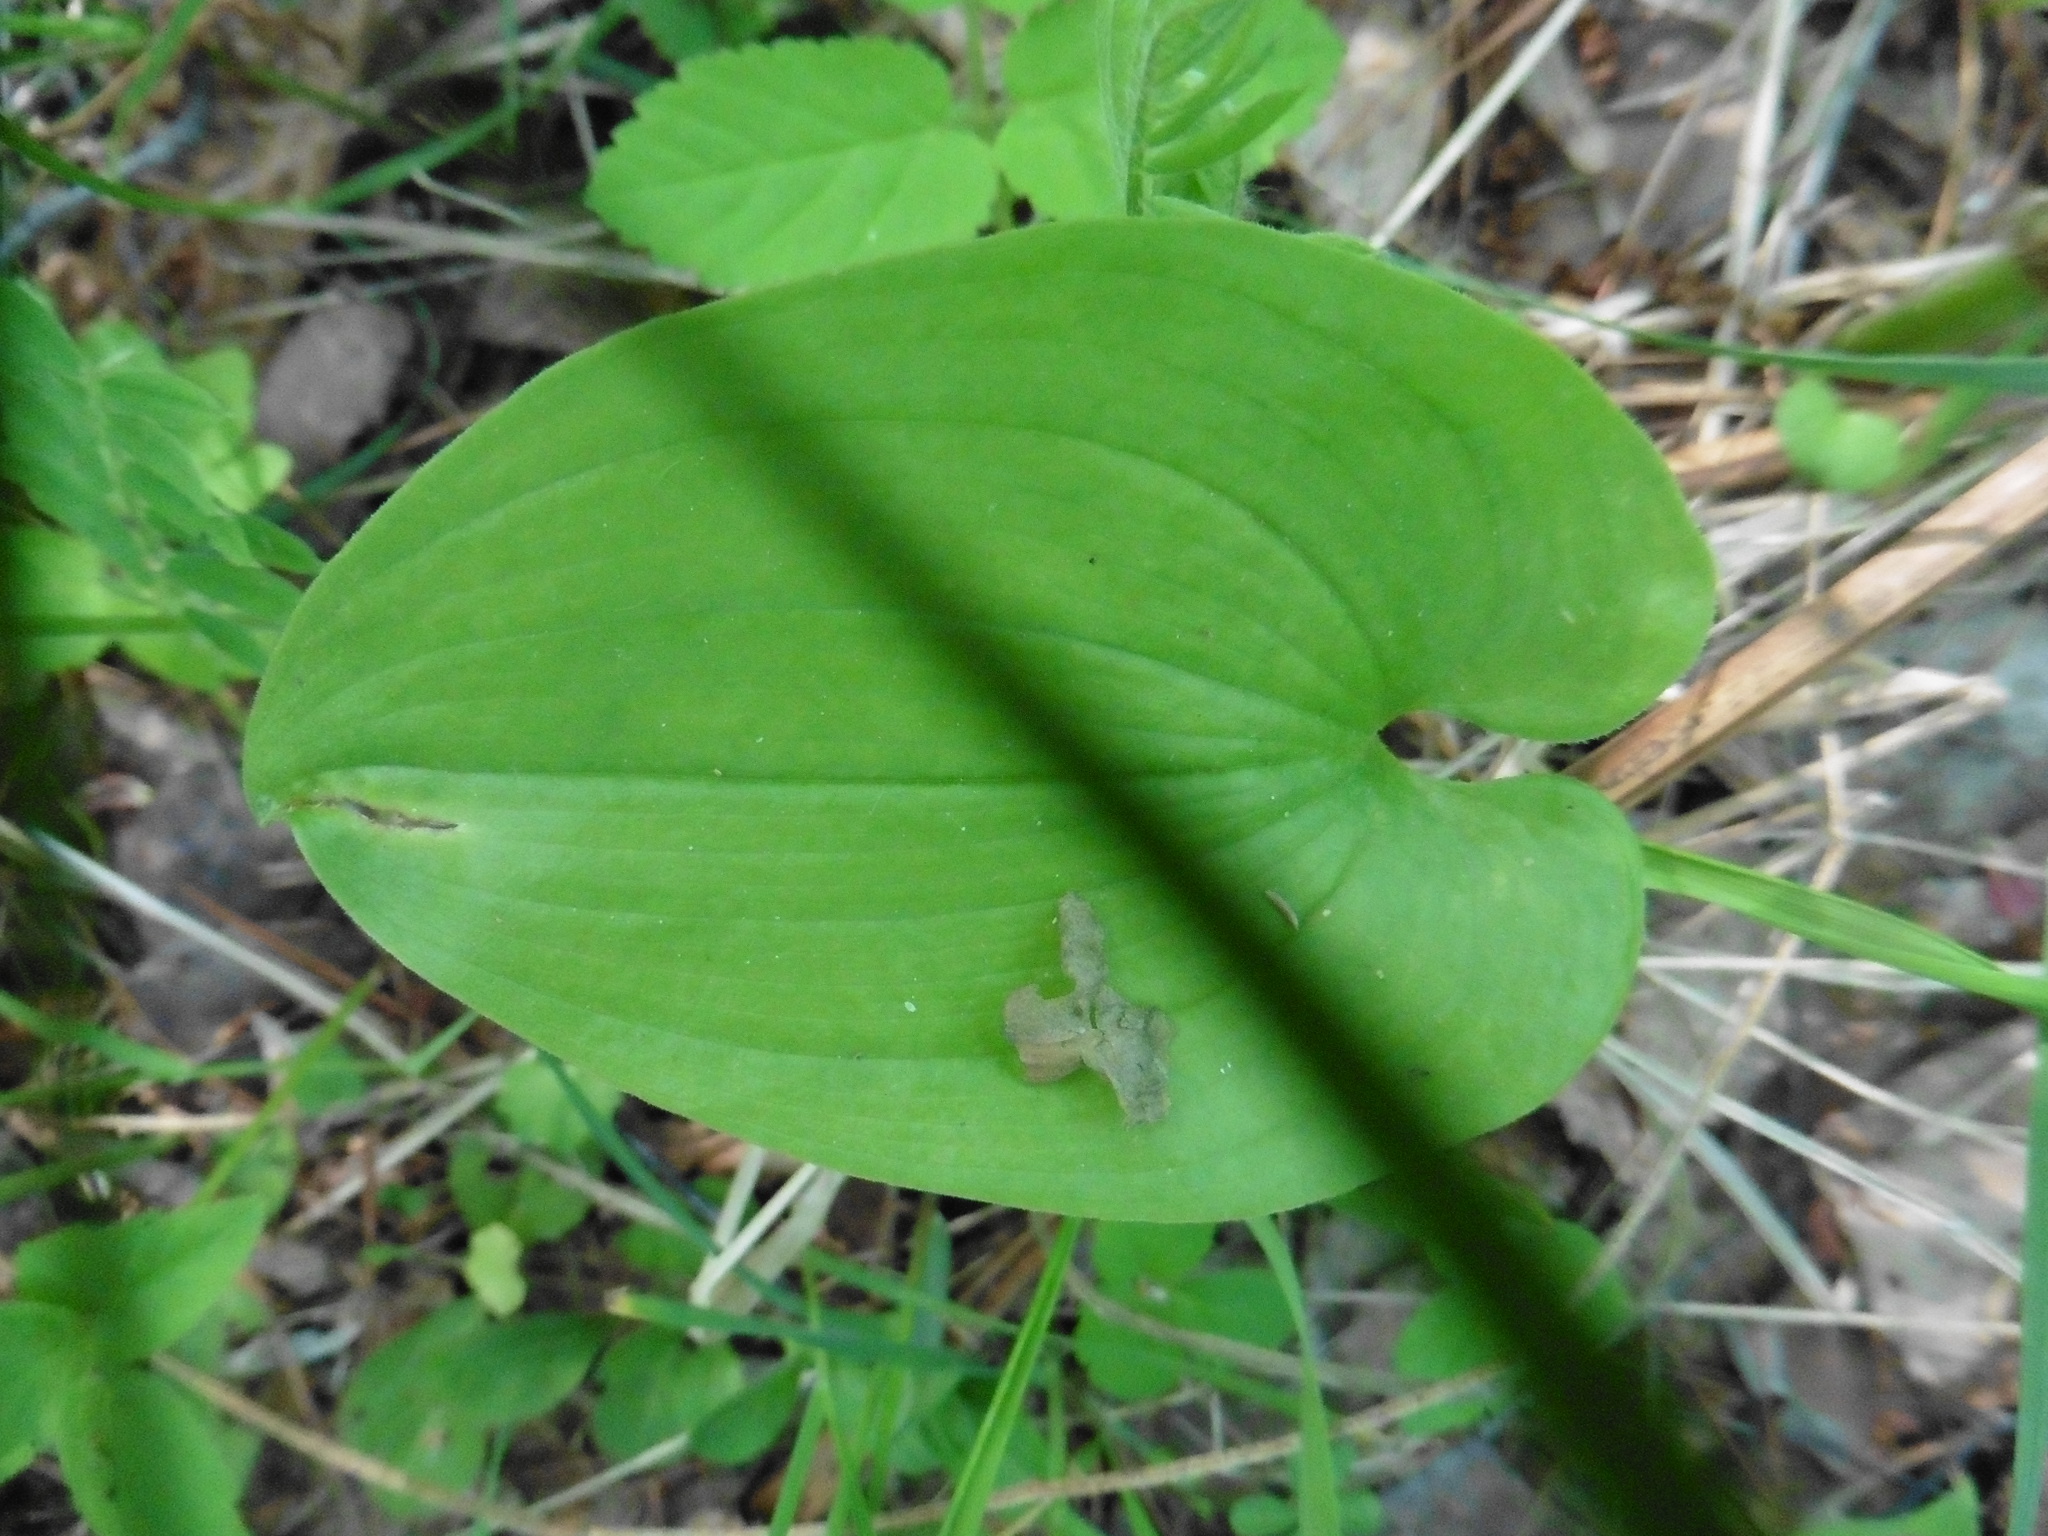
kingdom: Plantae
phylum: Tracheophyta
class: Liliopsida
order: Asparagales
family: Asparagaceae
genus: Maianthemum
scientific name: Maianthemum bifolium
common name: May lily
